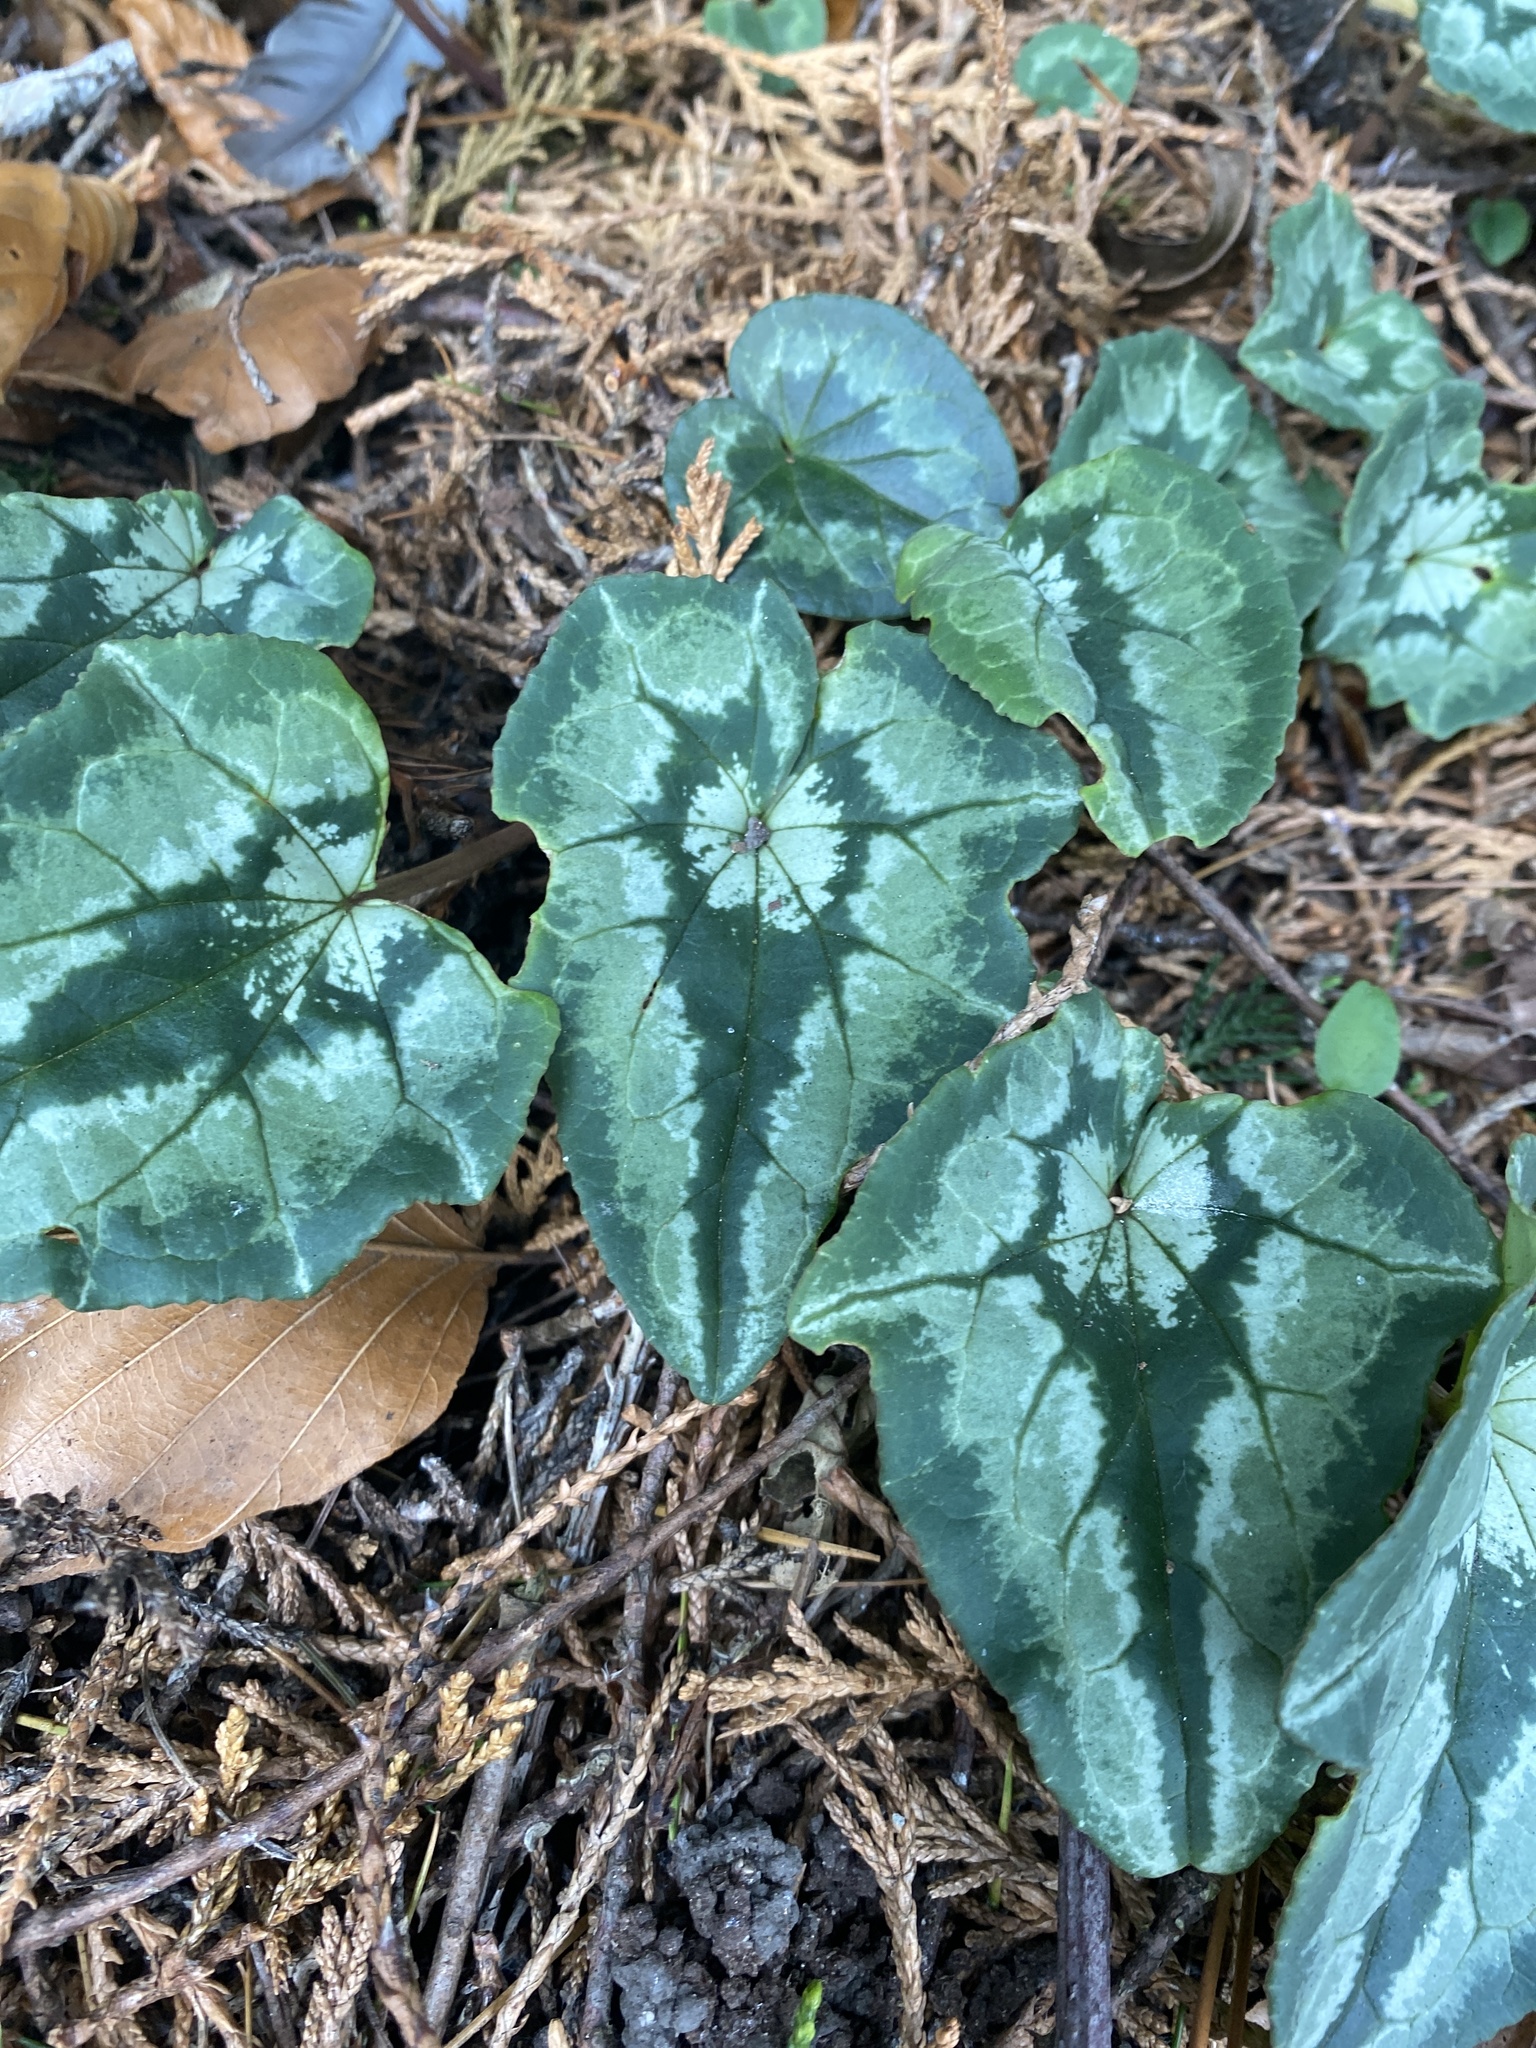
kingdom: Plantae
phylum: Tracheophyta
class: Magnoliopsida
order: Ericales
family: Primulaceae
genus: Cyclamen
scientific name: Cyclamen hederifolium
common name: Sowbread
